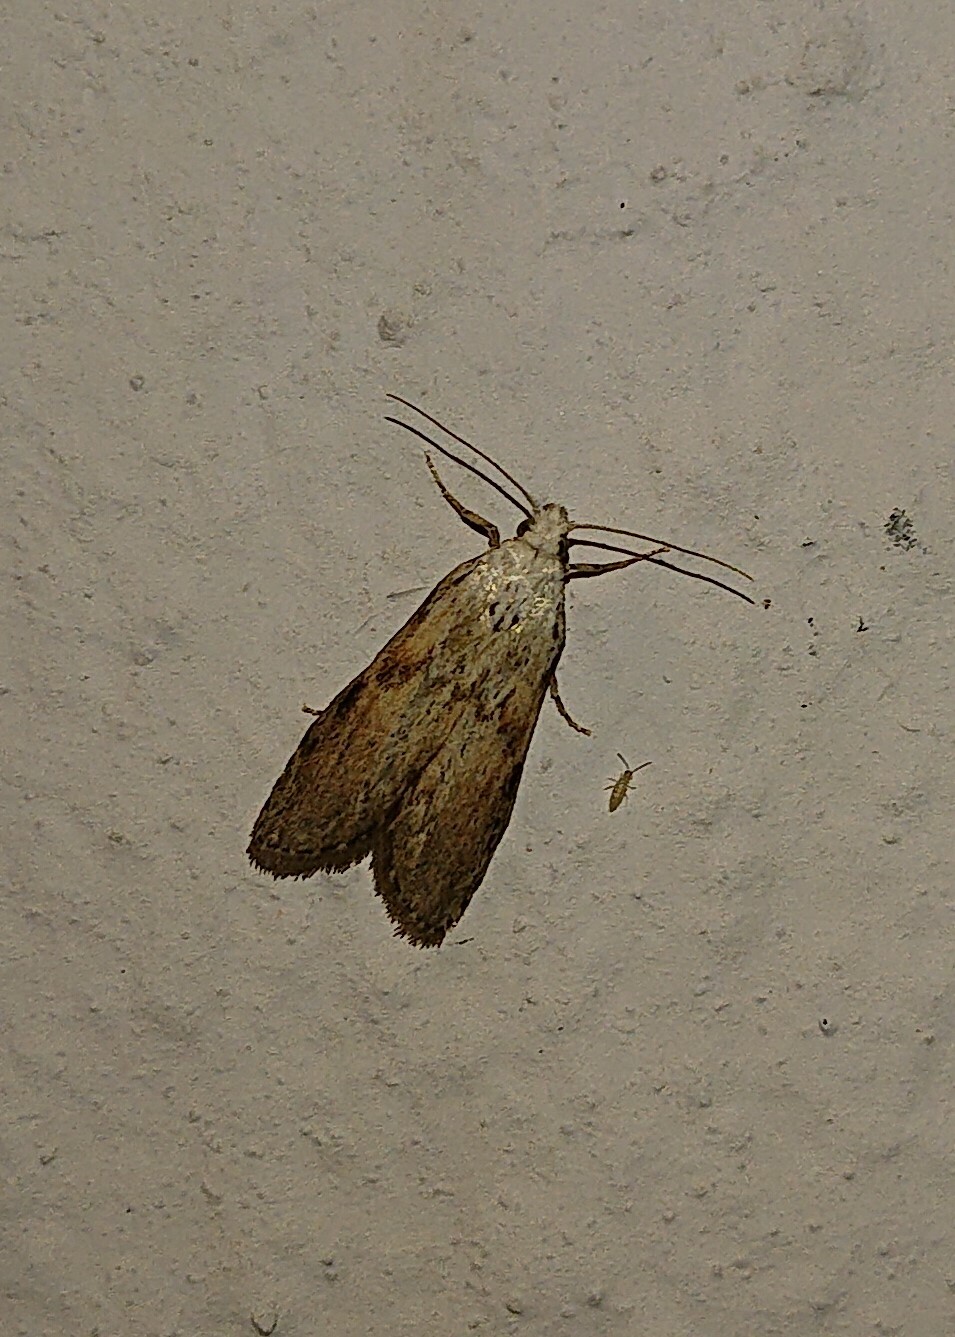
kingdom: Animalia
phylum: Arthropoda
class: Insecta
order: Lepidoptera
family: Pyralidae
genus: Aphomia
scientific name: Aphomia sociella
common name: Bee moth
